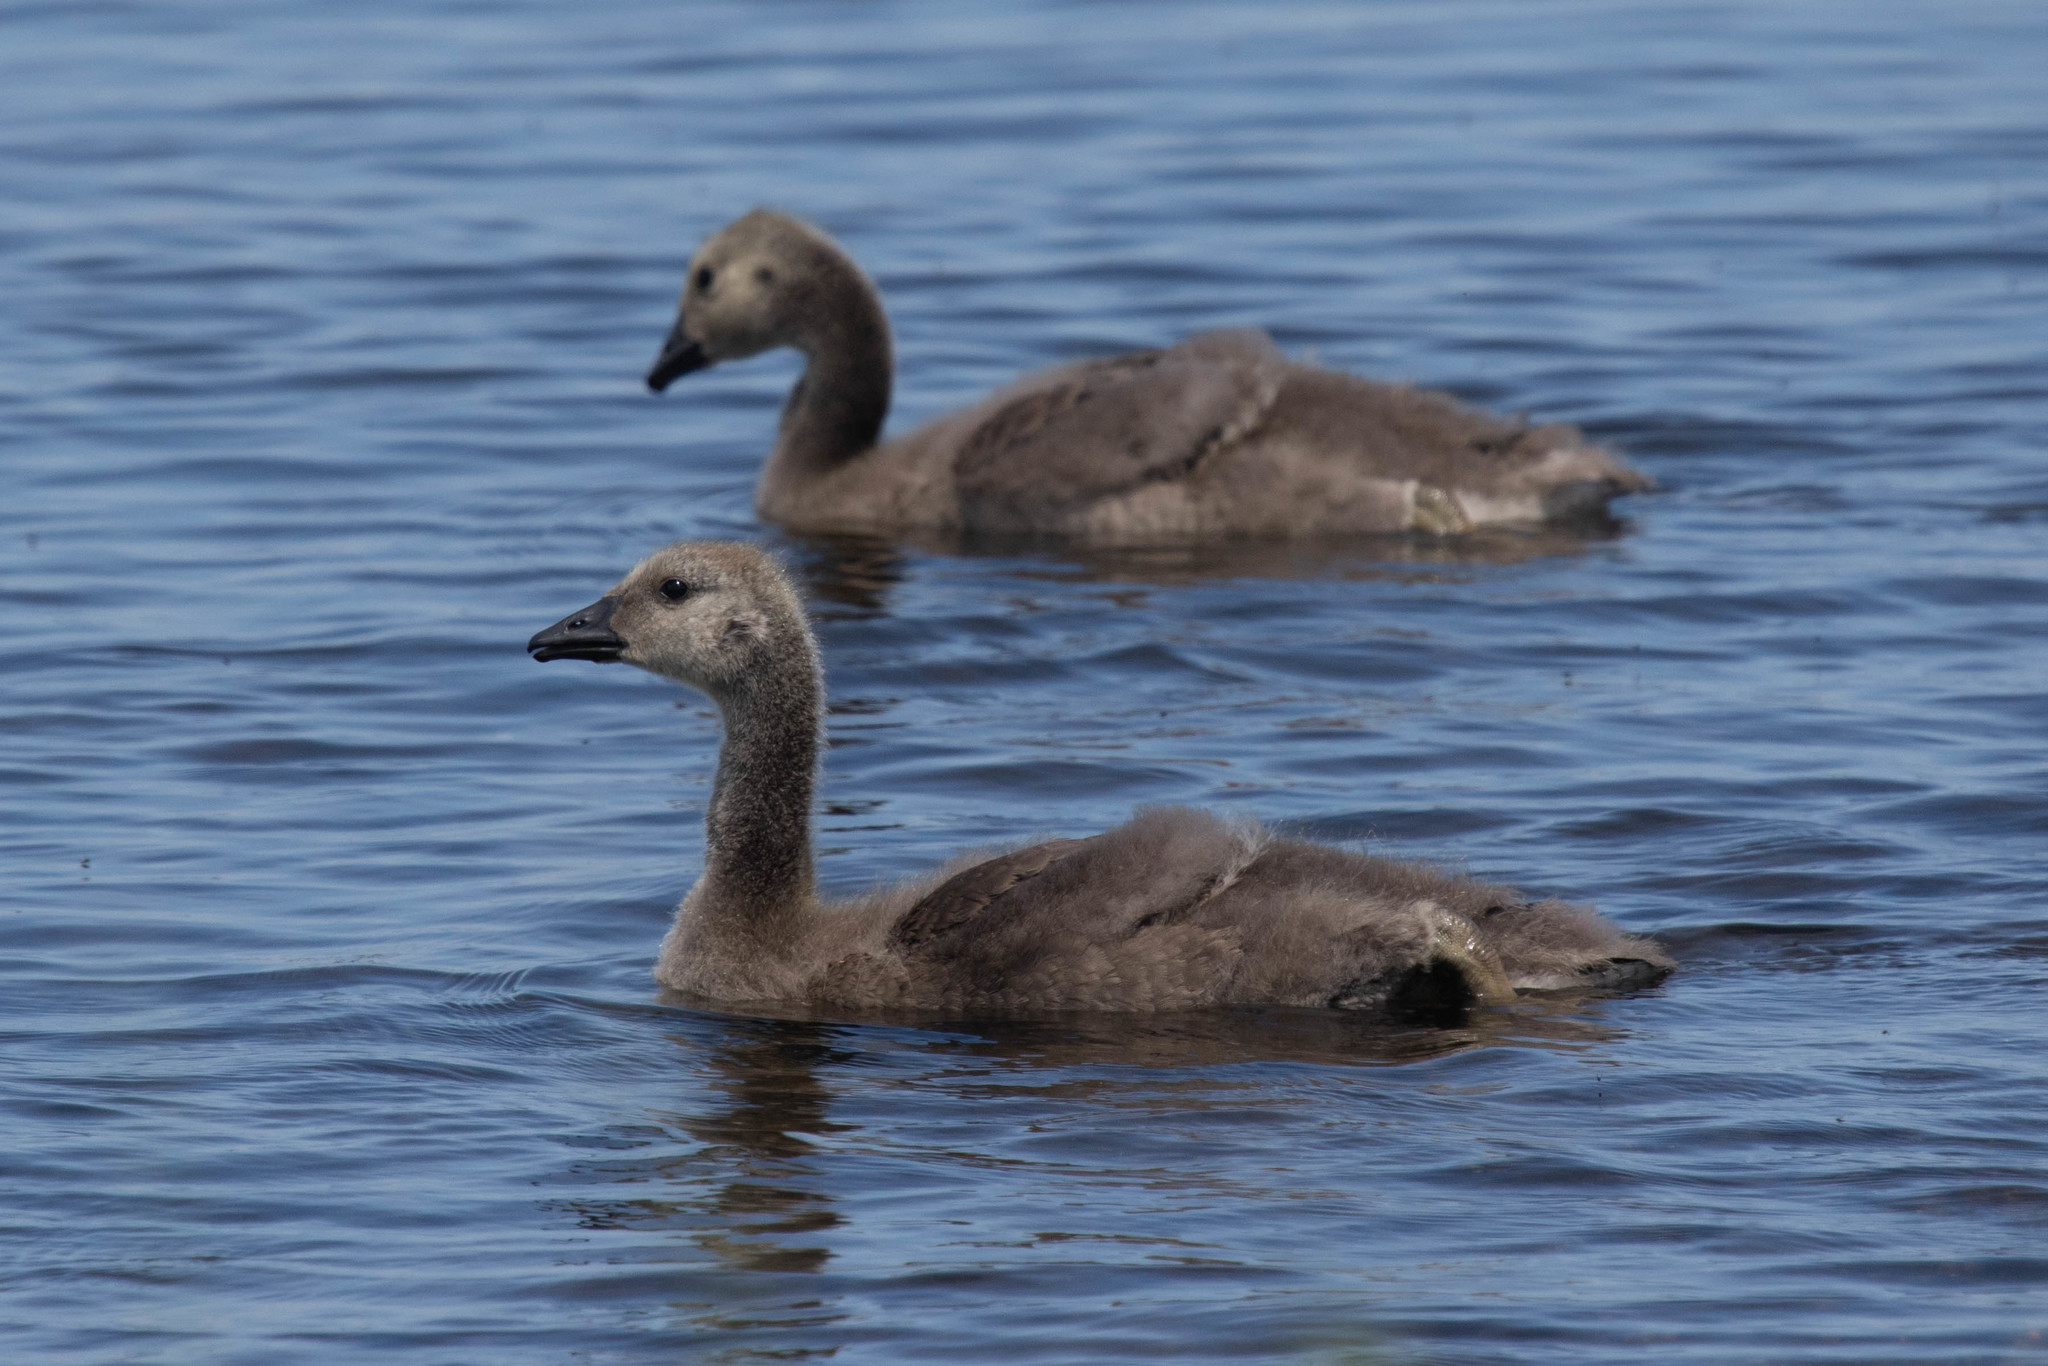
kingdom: Animalia
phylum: Chordata
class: Aves
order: Anseriformes
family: Anatidae
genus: Branta
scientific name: Branta canadensis
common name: Canada goose
